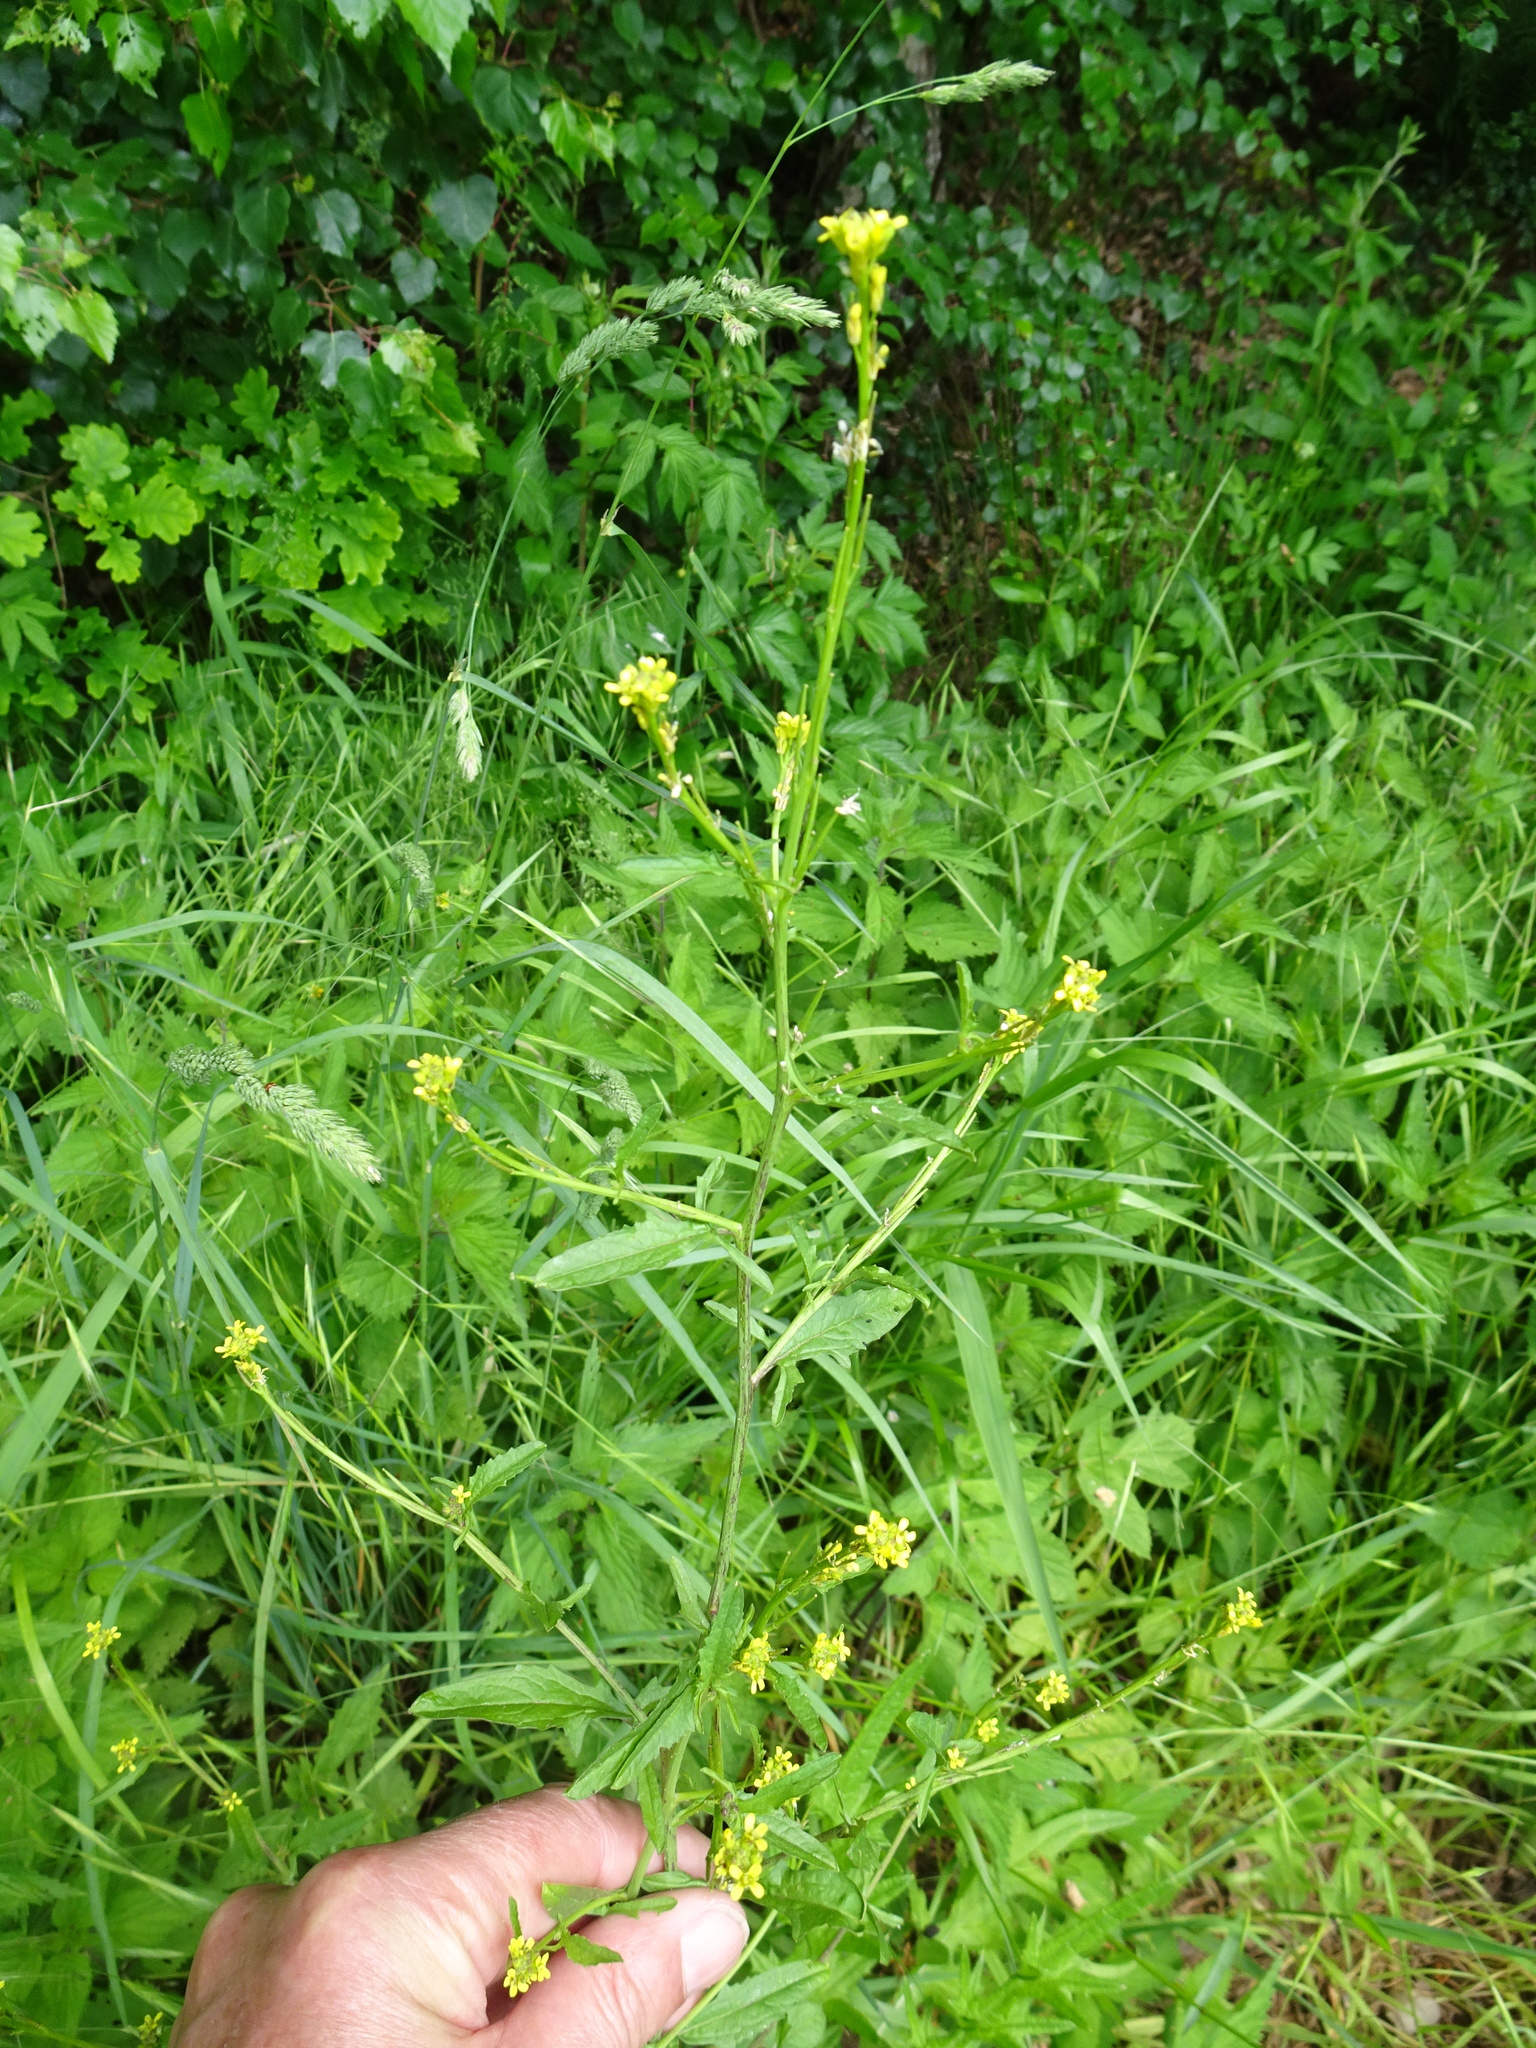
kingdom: Plantae
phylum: Tracheophyta
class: Magnoliopsida
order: Brassicales
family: Brassicaceae
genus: Sisymbrium
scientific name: Sisymbrium officinale
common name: Hedge mustard
